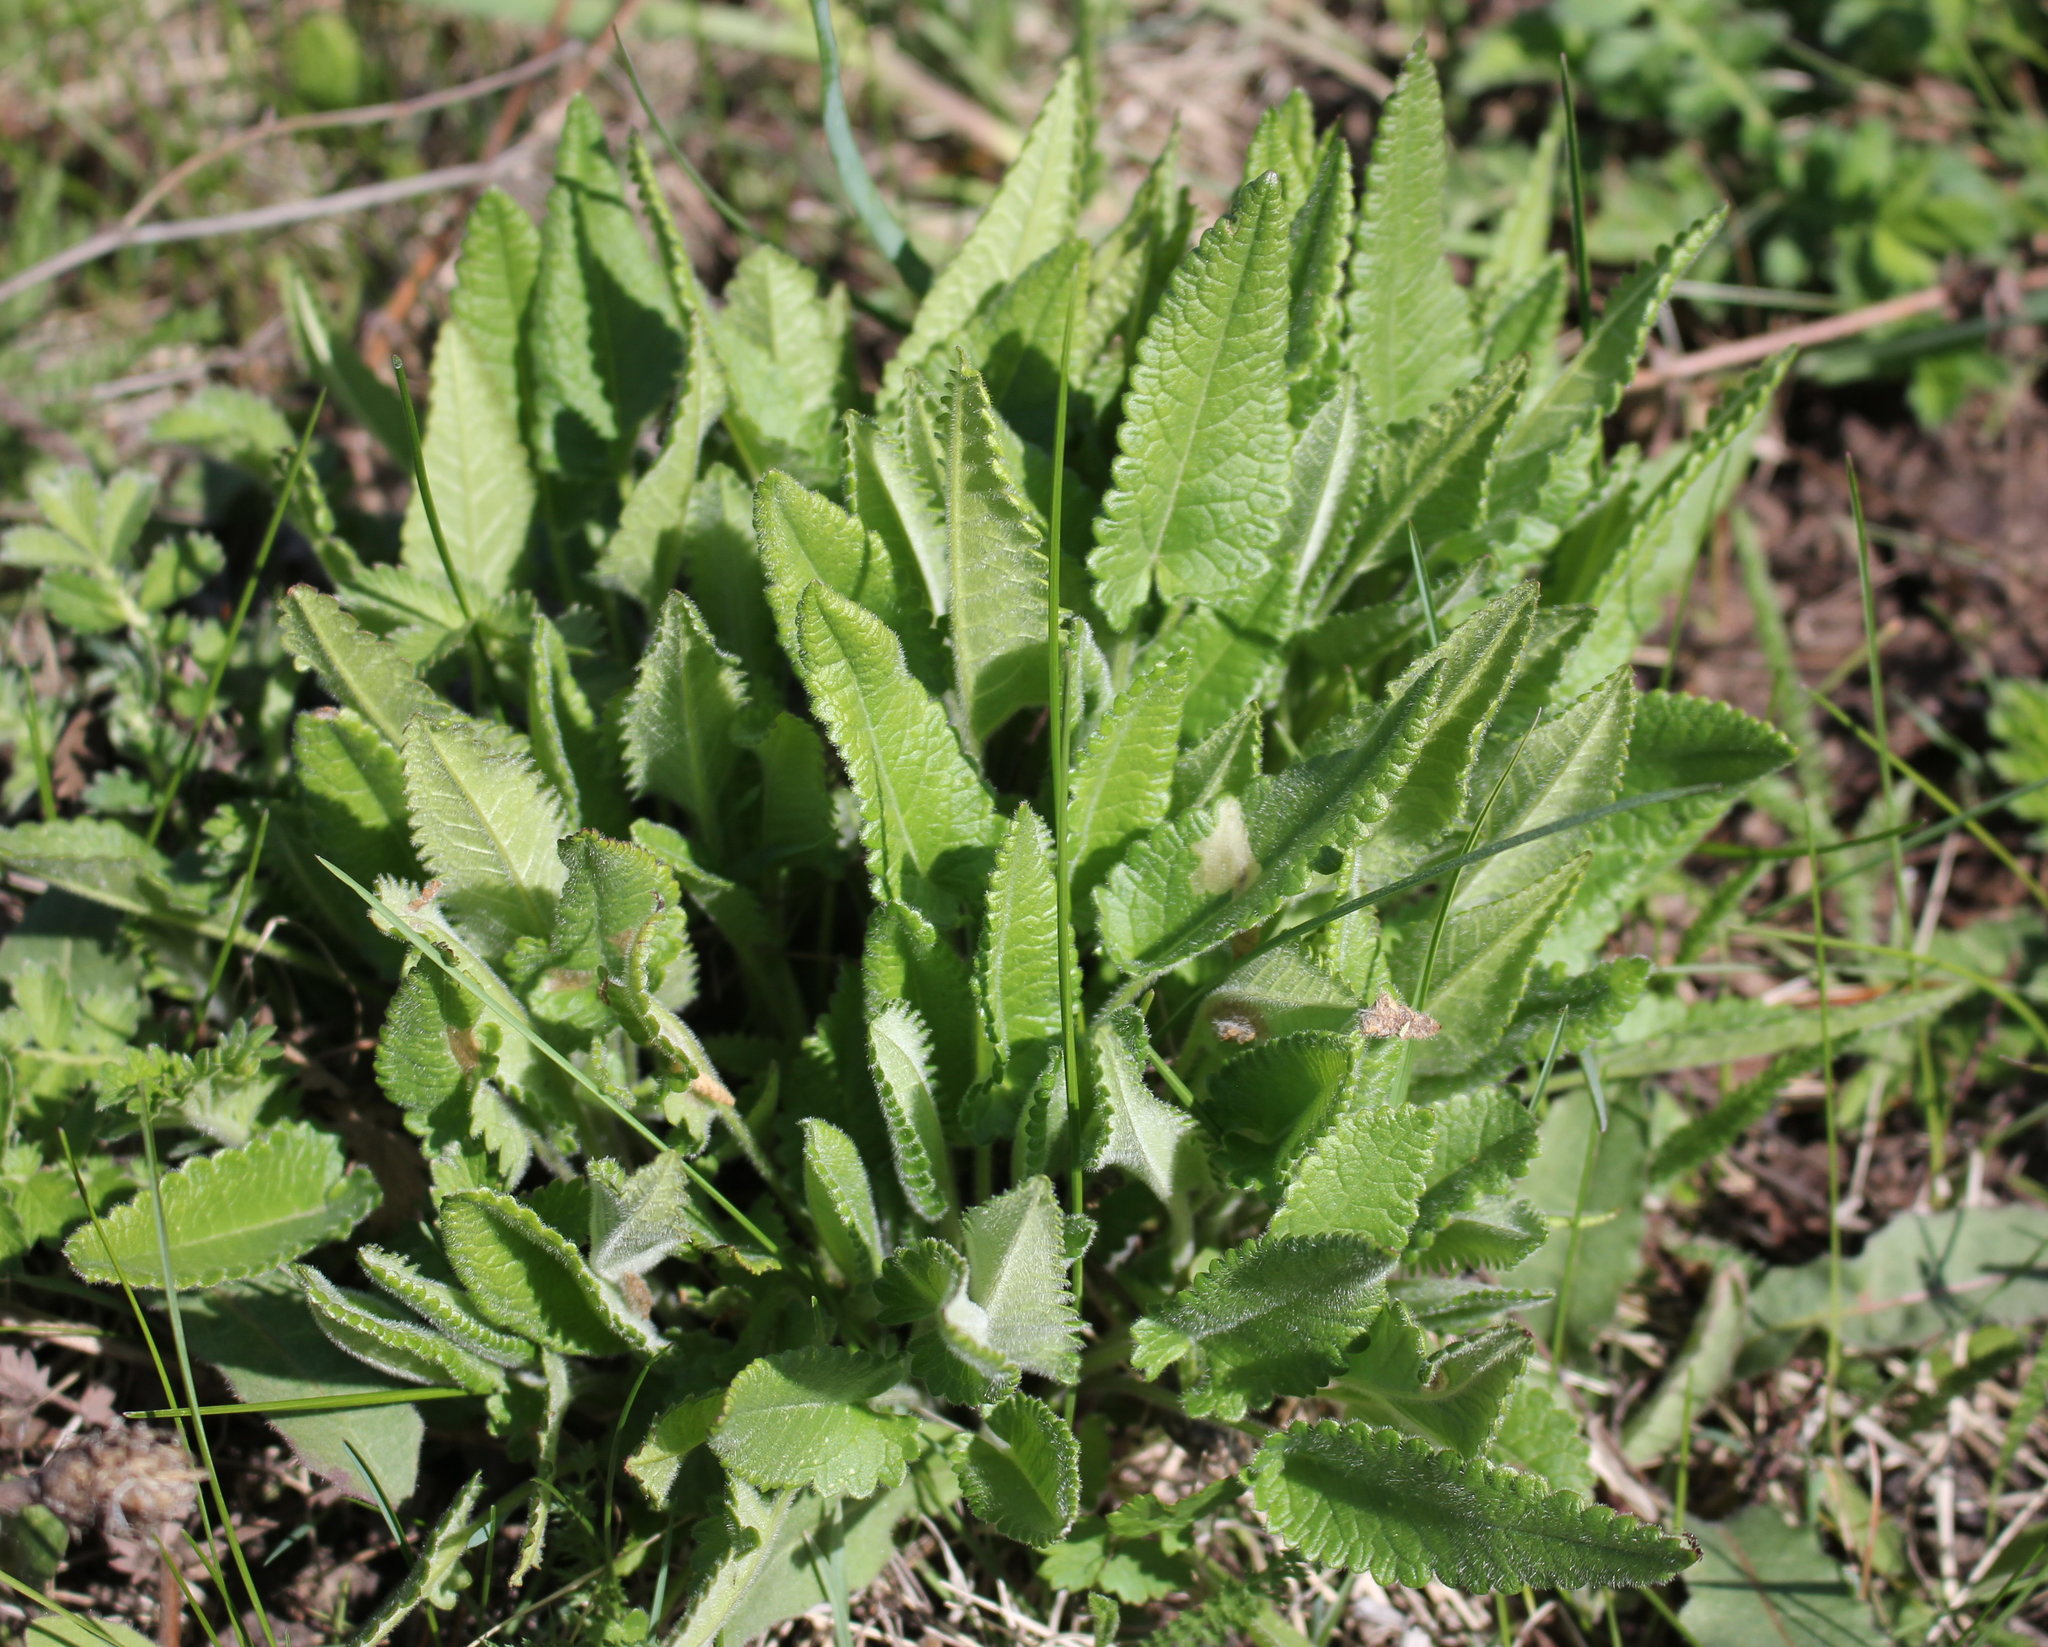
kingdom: Plantae
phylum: Tracheophyta
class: Magnoliopsida
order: Lamiales
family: Lamiaceae
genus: Betonica
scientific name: Betonica officinalis
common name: Bishop's-wort
